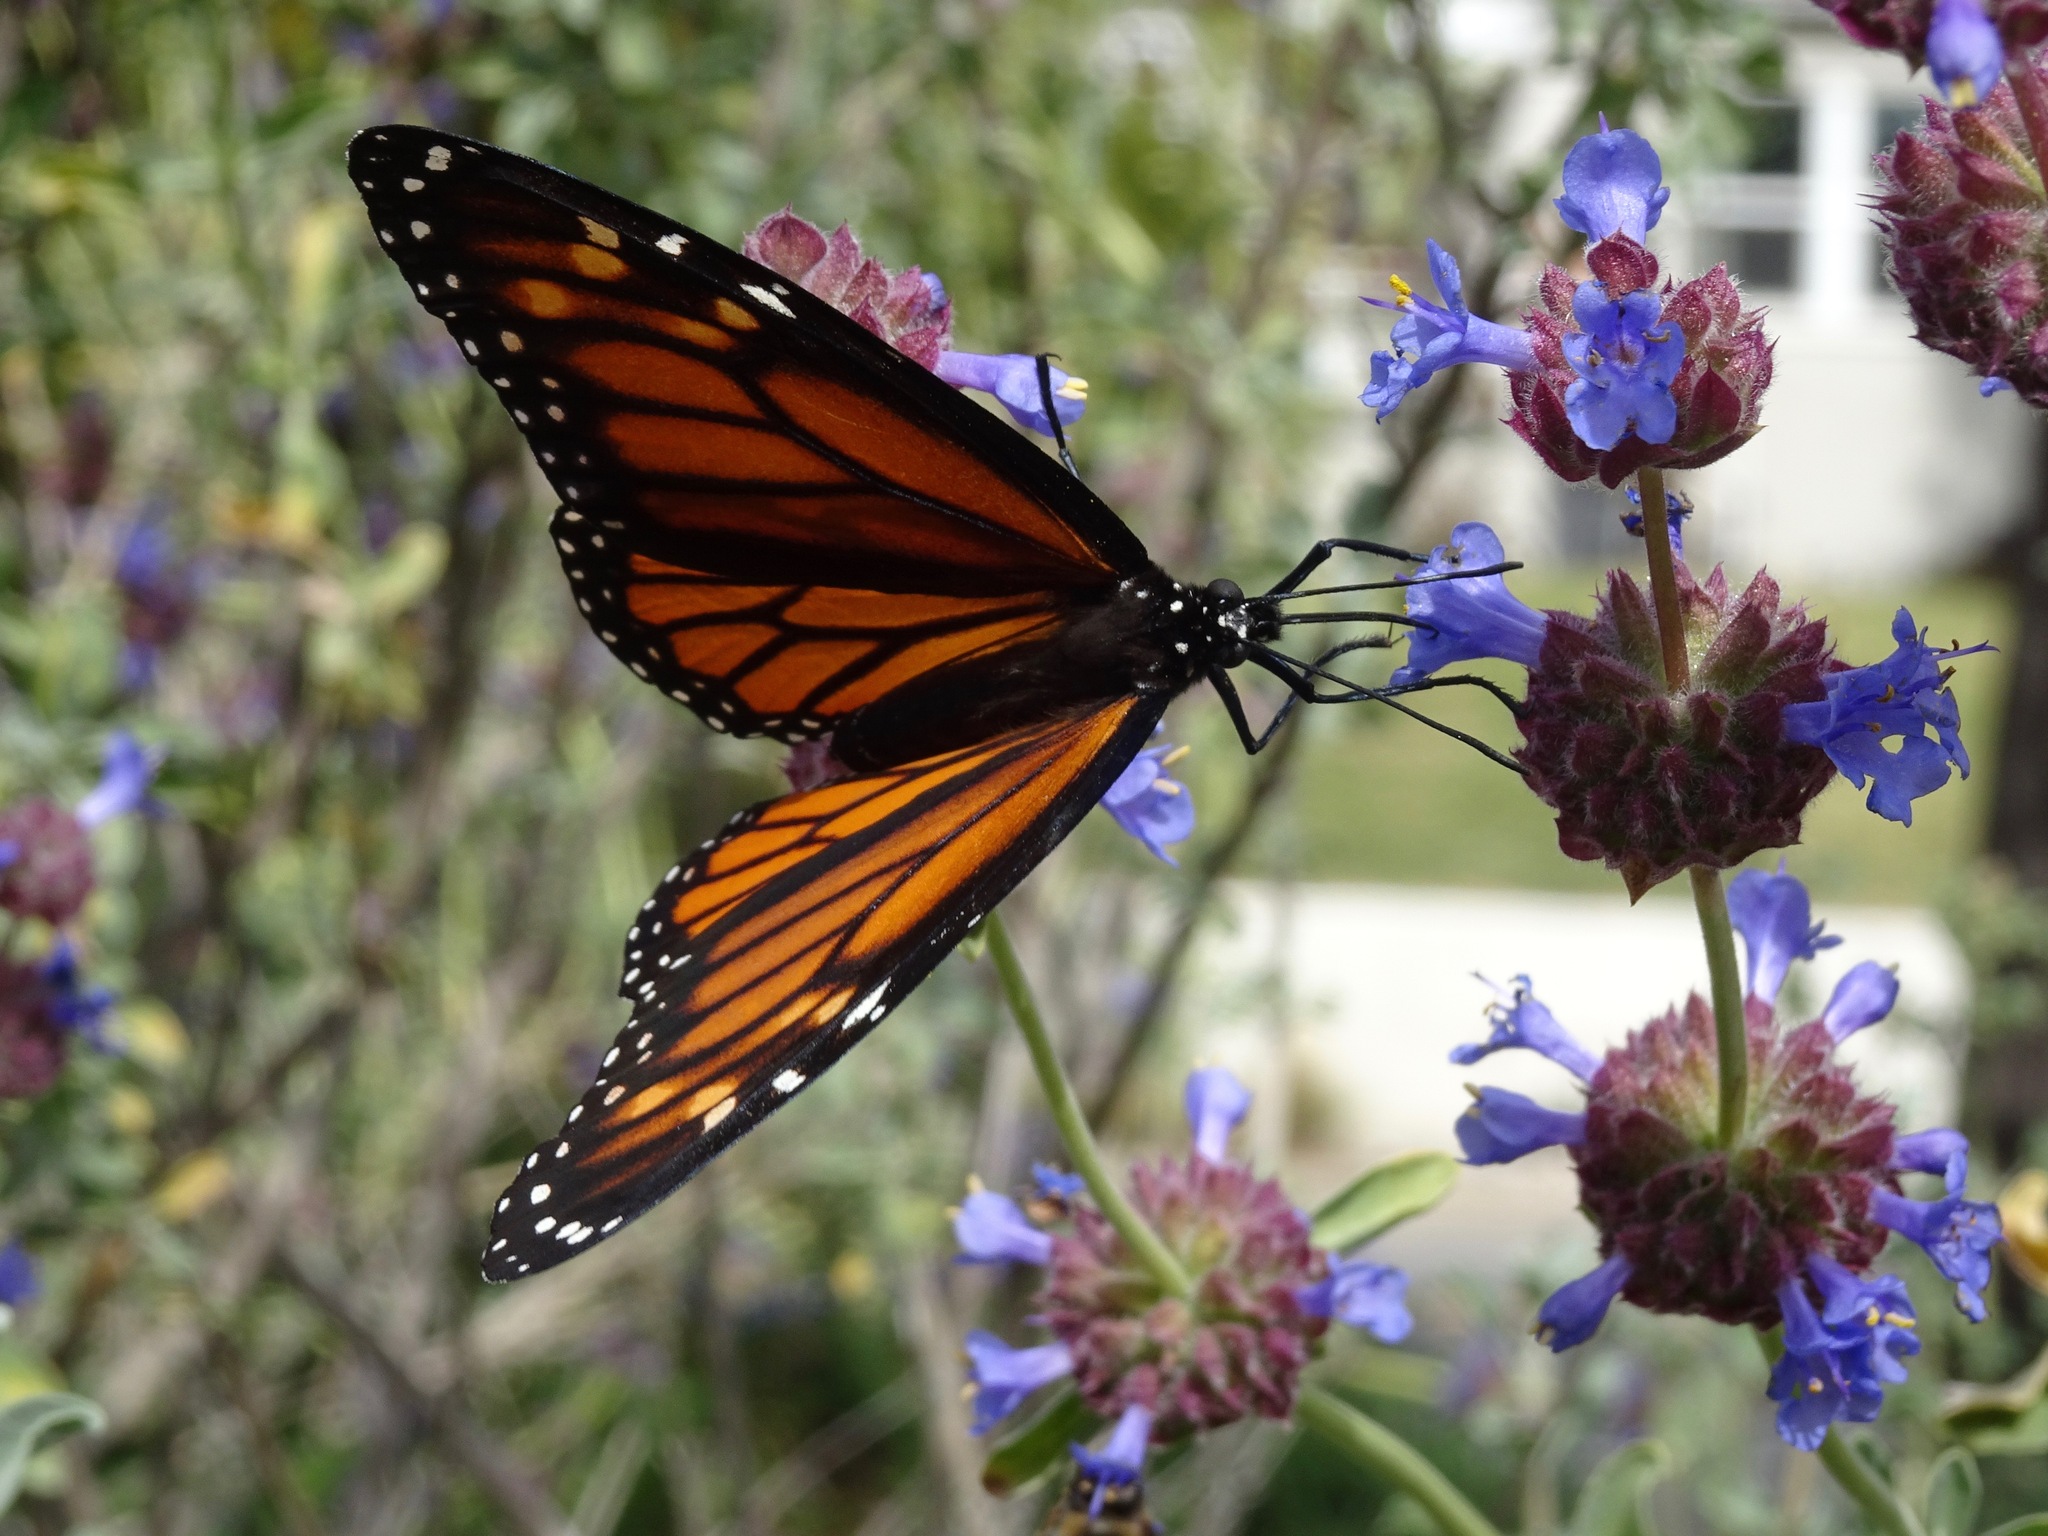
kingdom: Animalia
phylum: Arthropoda
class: Insecta
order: Lepidoptera
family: Nymphalidae
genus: Danaus
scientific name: Danaus plexippus
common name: Monarch
